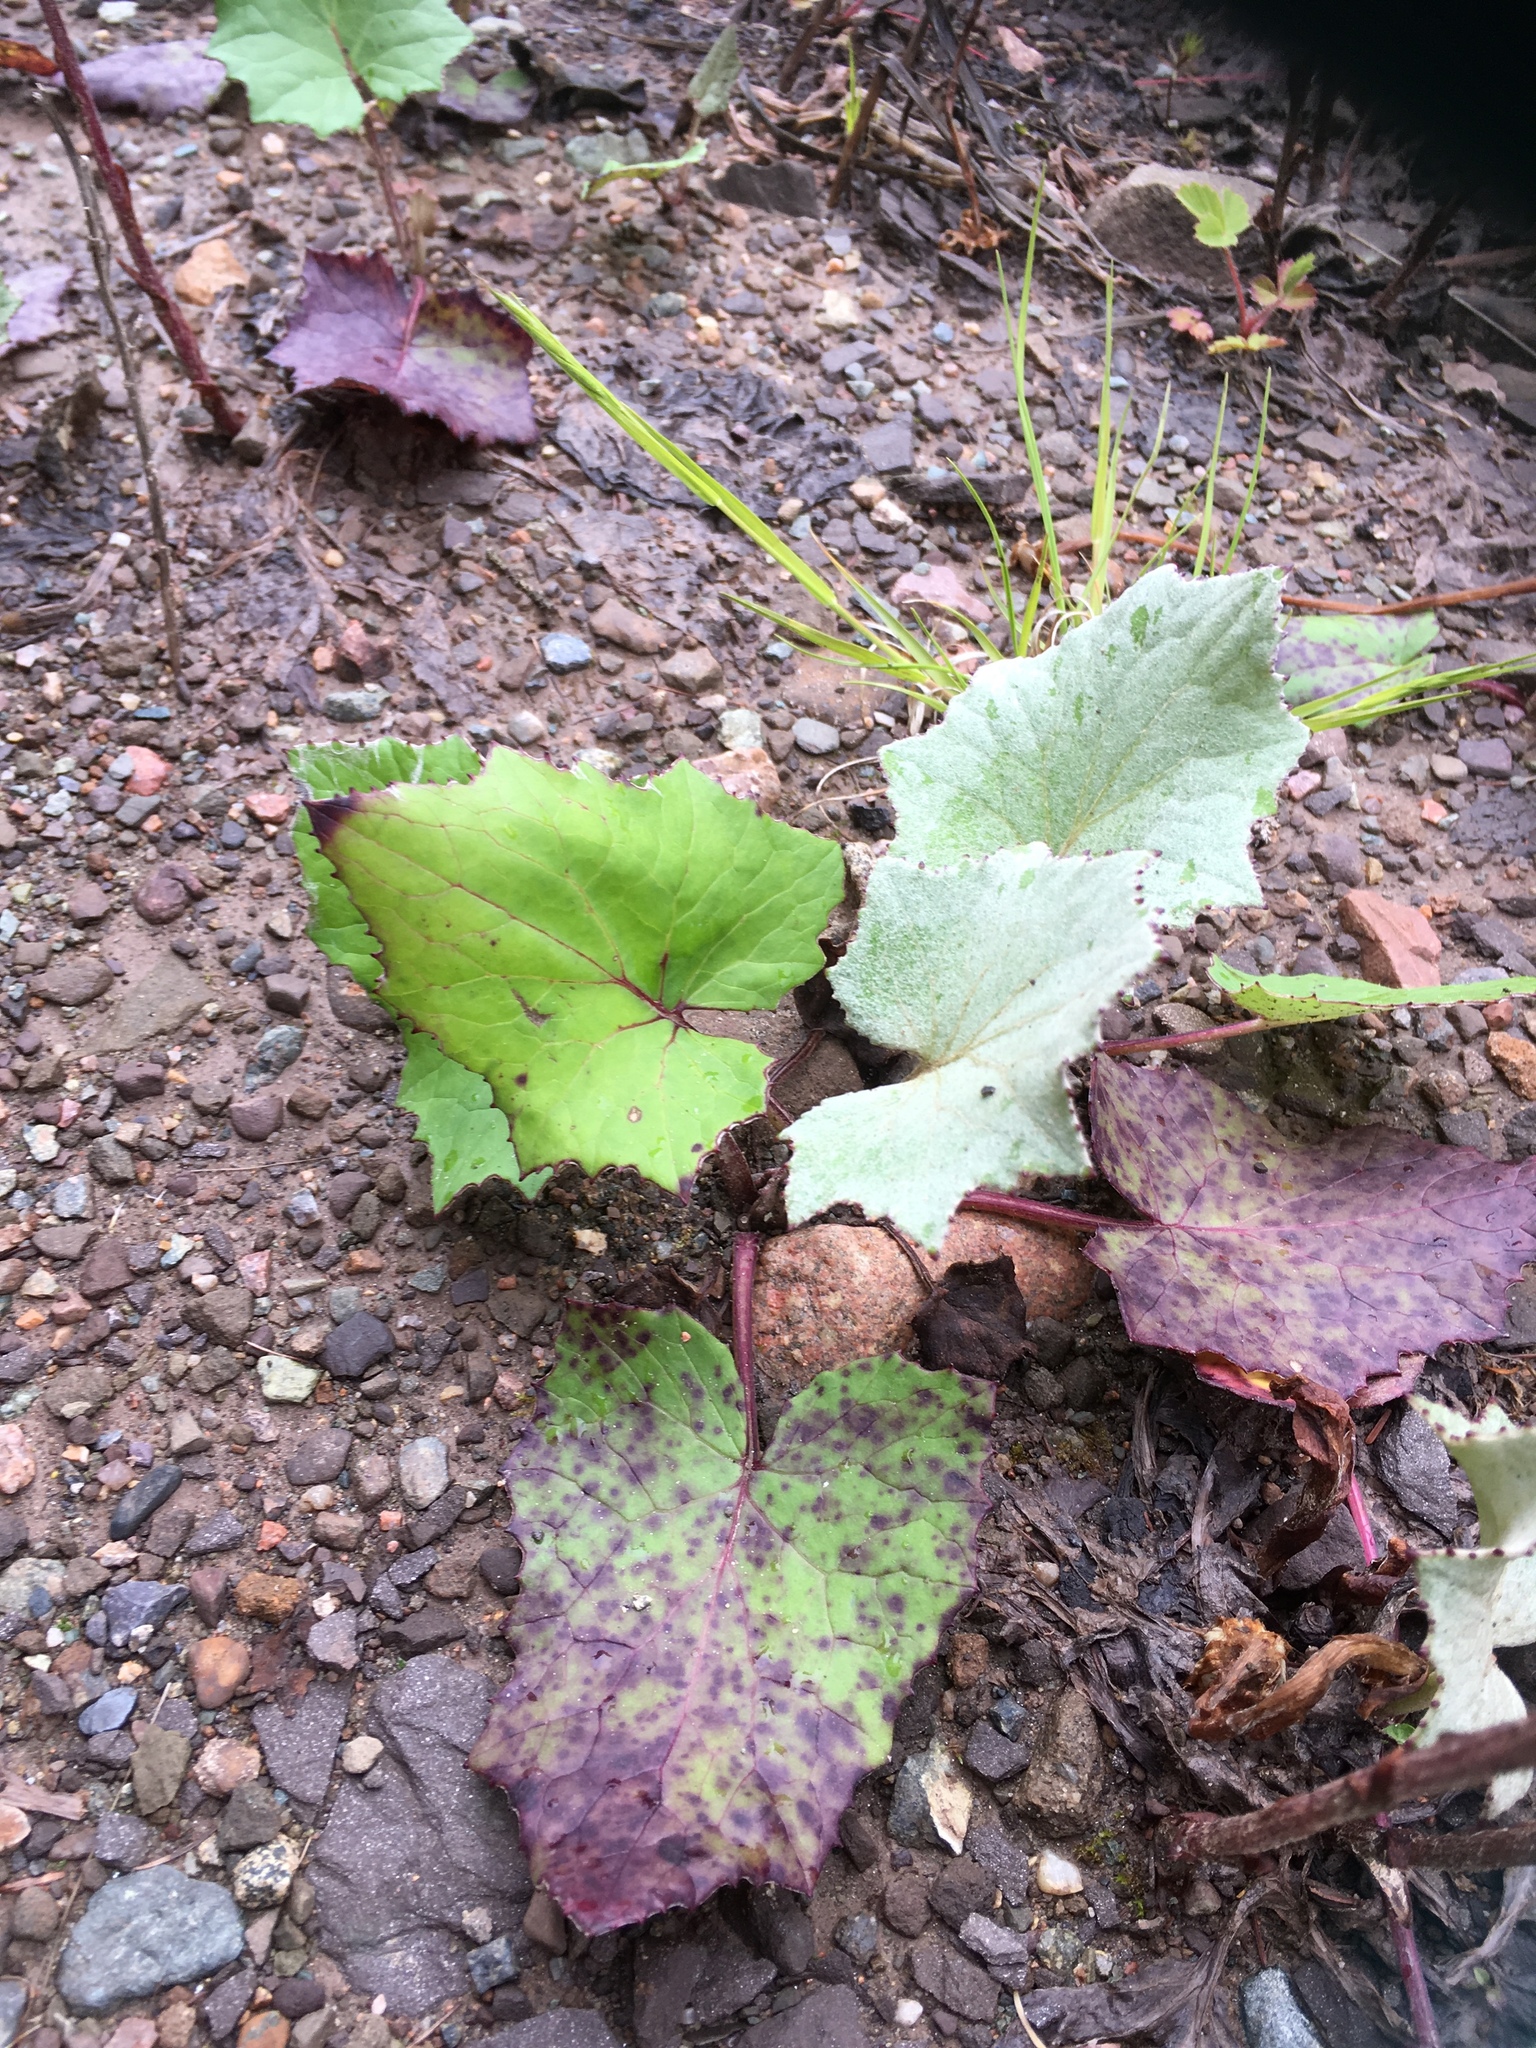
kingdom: Plantae
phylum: Tracheophyta
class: Magnoliopsida
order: Asterales
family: Asteraceae
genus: Tussilago
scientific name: Tussilago farfara
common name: Coltsfoot
